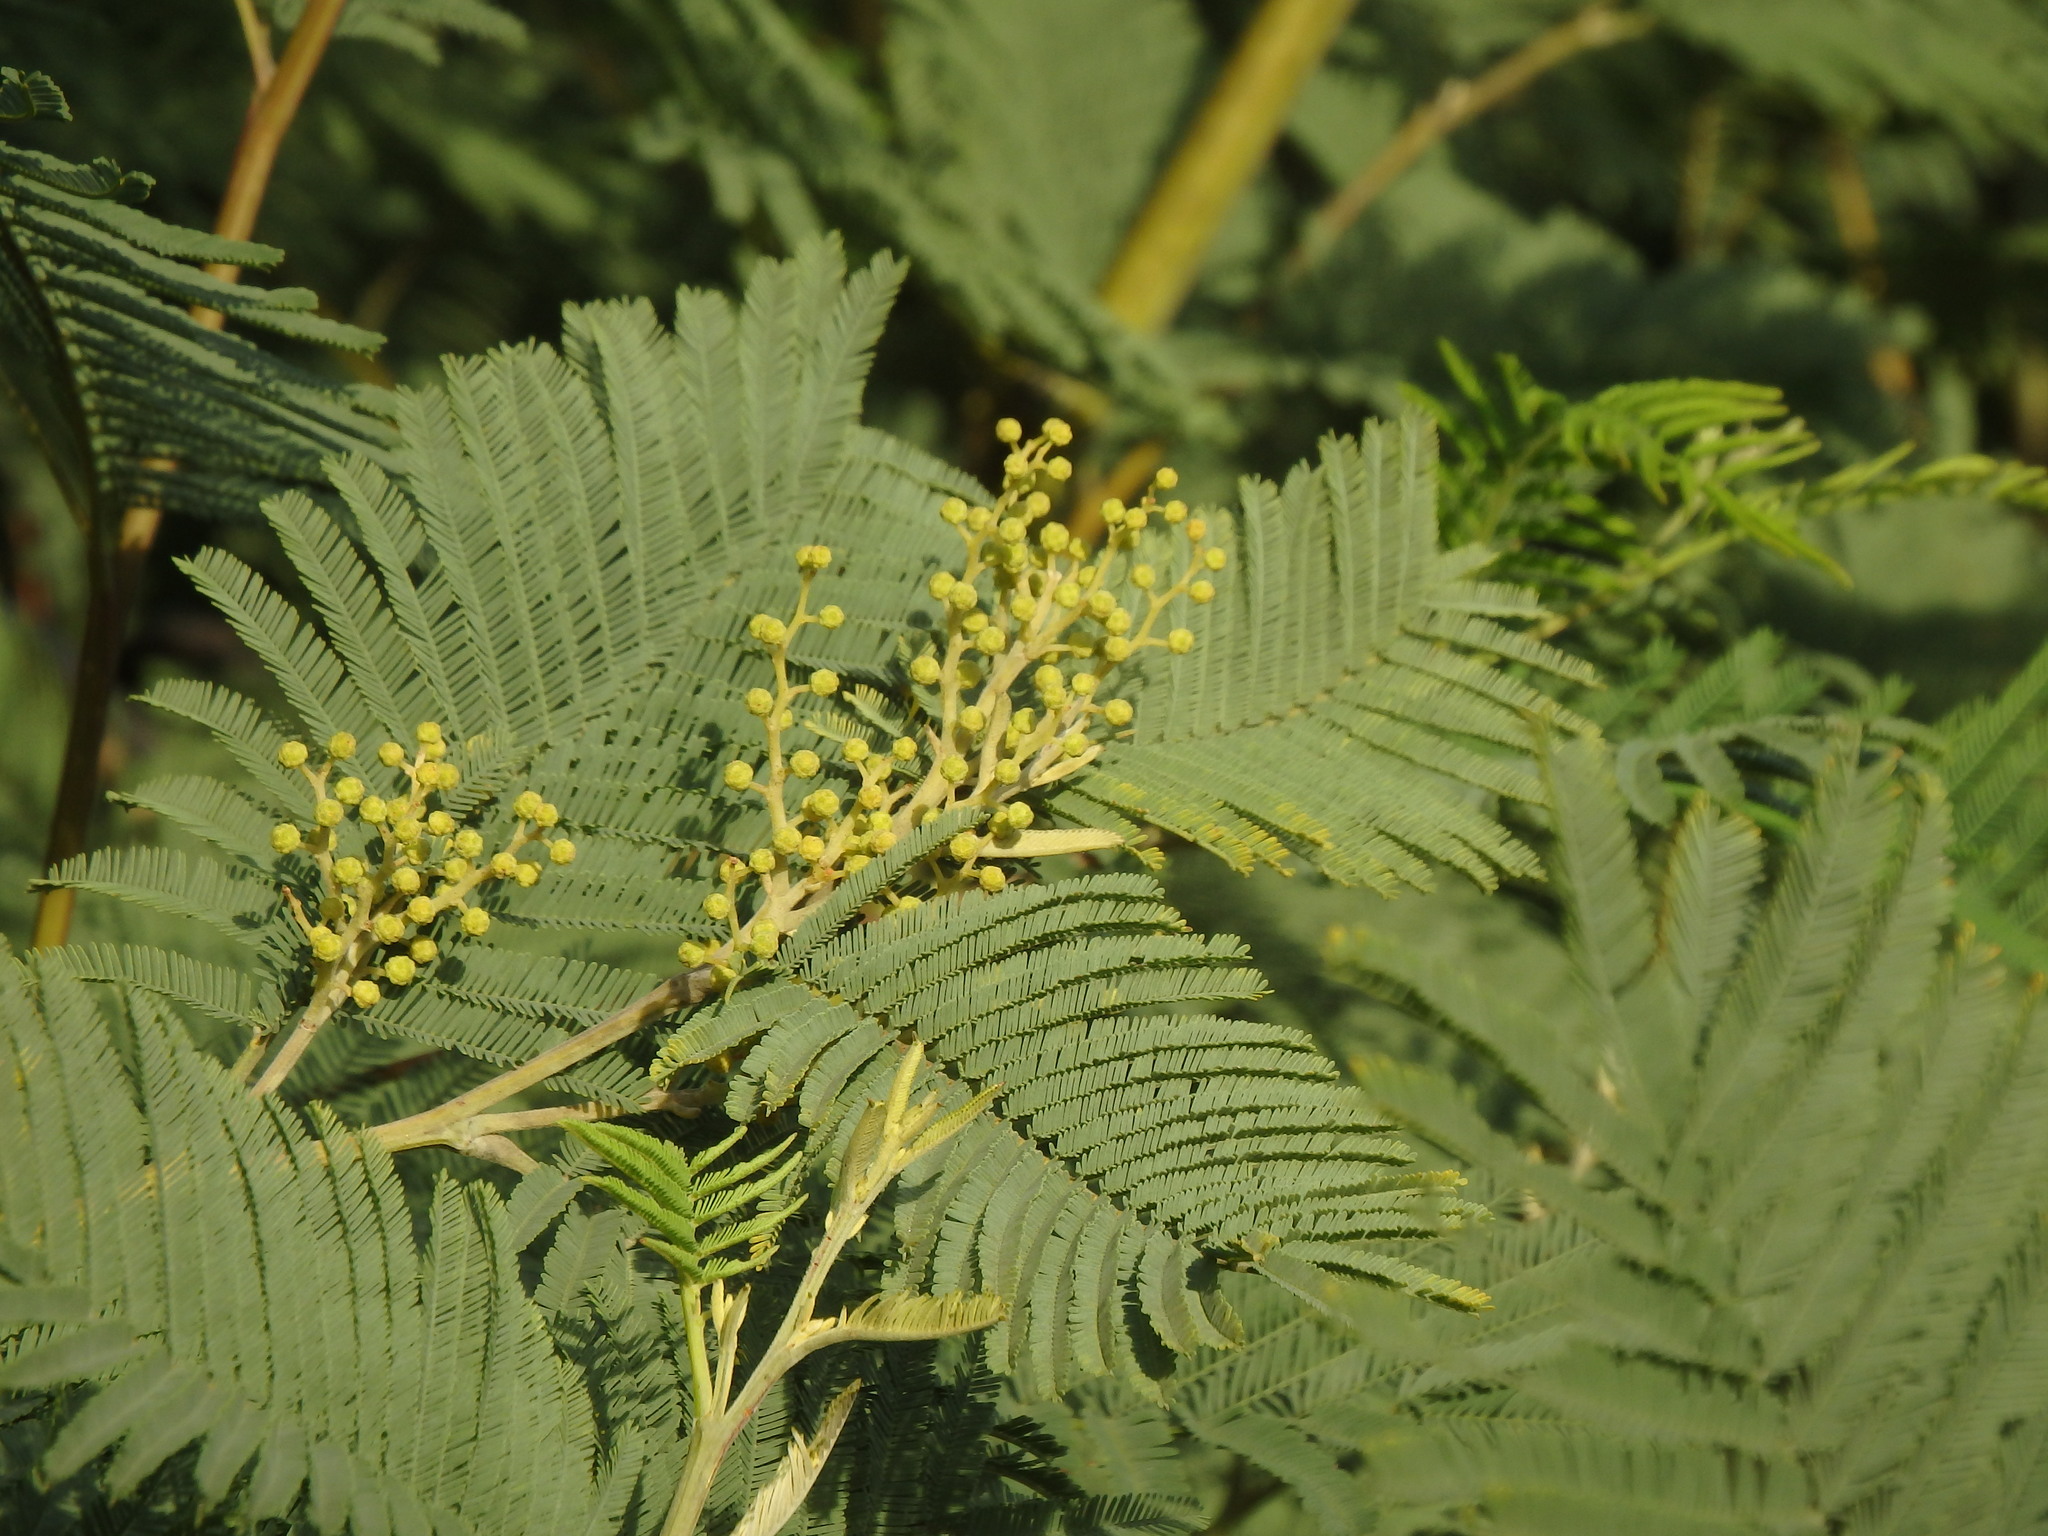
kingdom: Plantae
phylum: Tracheophyta
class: Magnoliopsida
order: Fabales
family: Fabaceae
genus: Acacia
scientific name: Acacia dealbata
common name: Silver wattle
